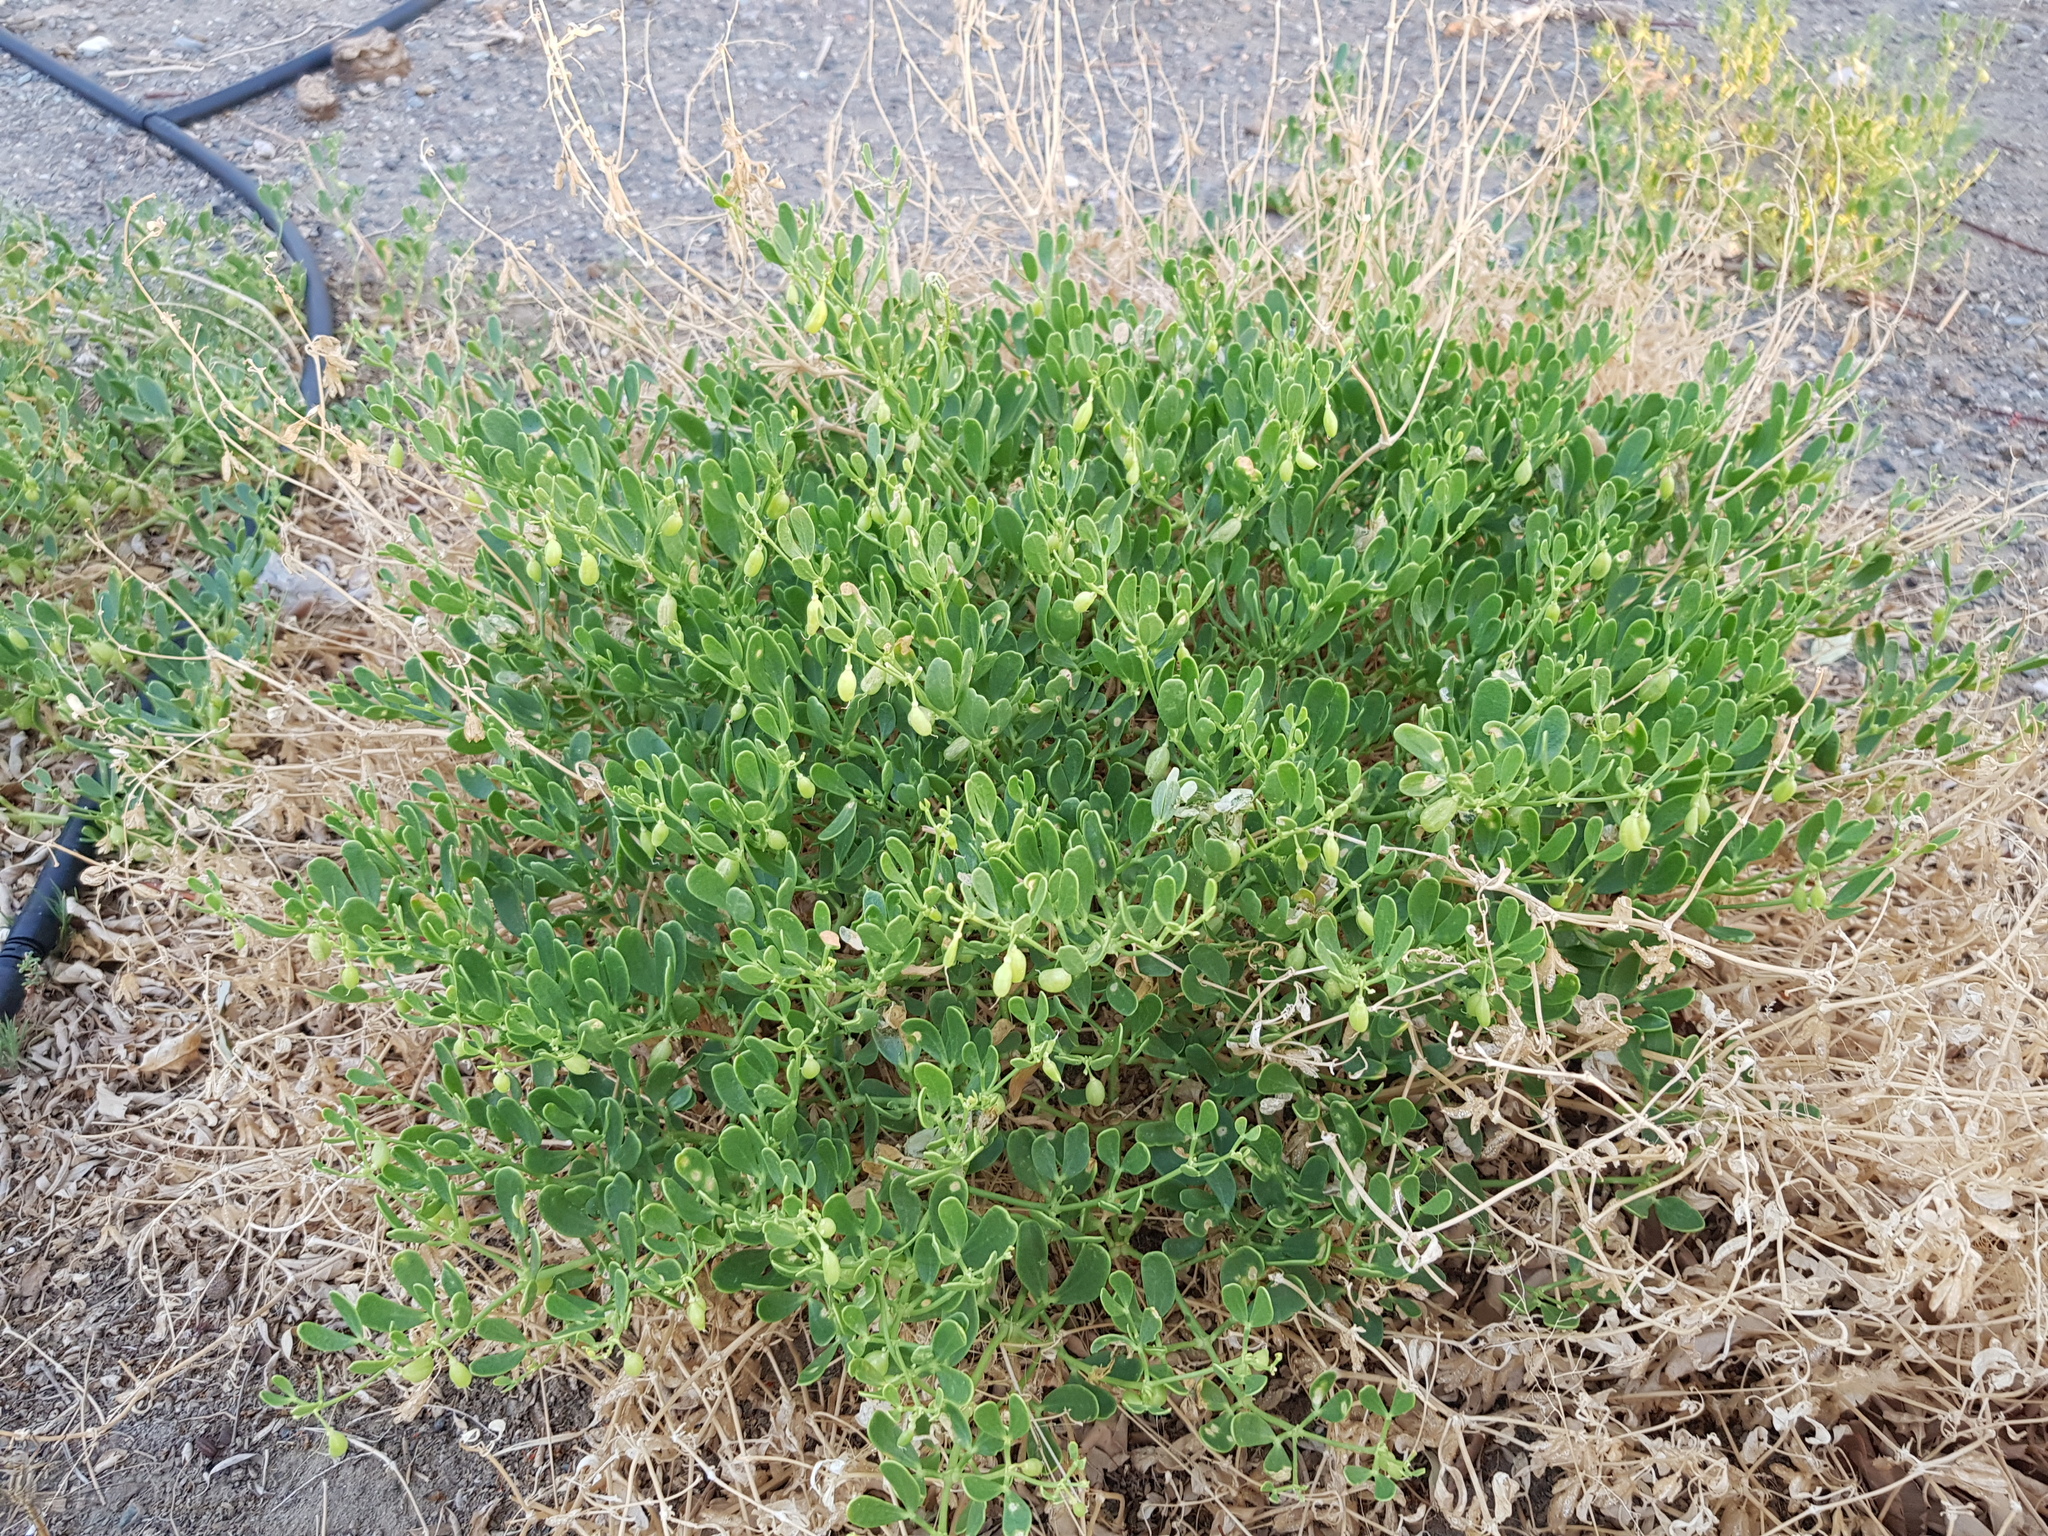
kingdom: Plantae
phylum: Tracheophyta
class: Magnoliopsida
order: Zygophyllales
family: Zygophyllaceae
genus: Zygophyllum
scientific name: Zygophyllum brachypterum
